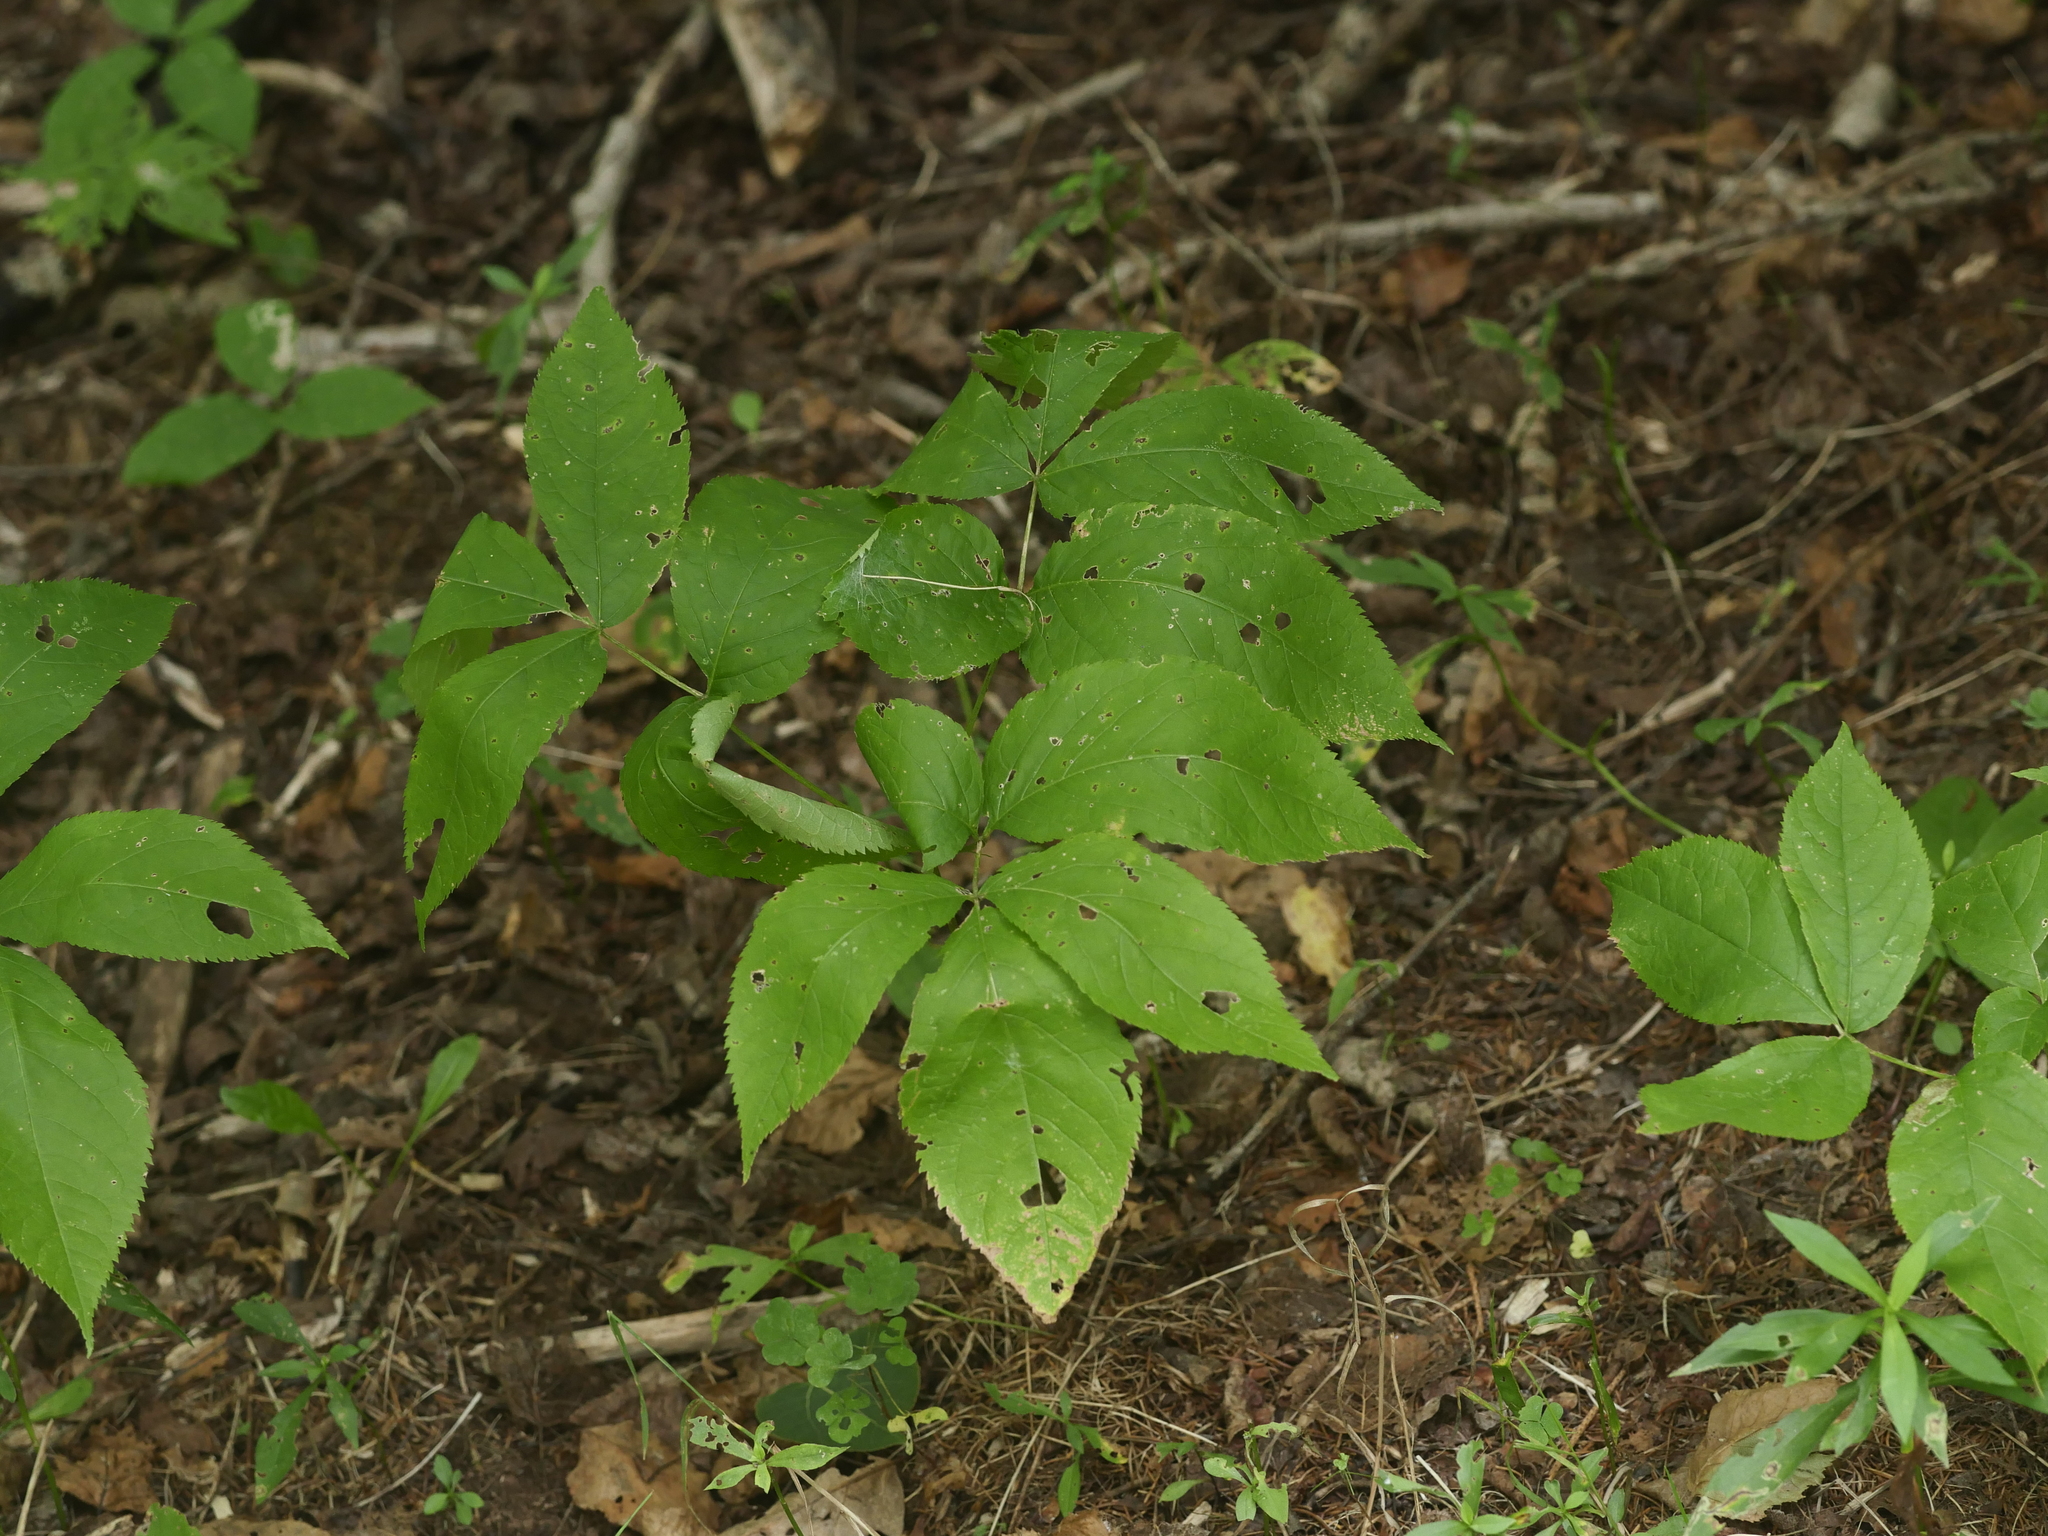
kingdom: Plantae
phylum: Tracheophyta
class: Magnoliopsida
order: Apiales
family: Araliaceae
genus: Aralia
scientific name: Aralia nudicaulis
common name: Wild sarsaparilla
